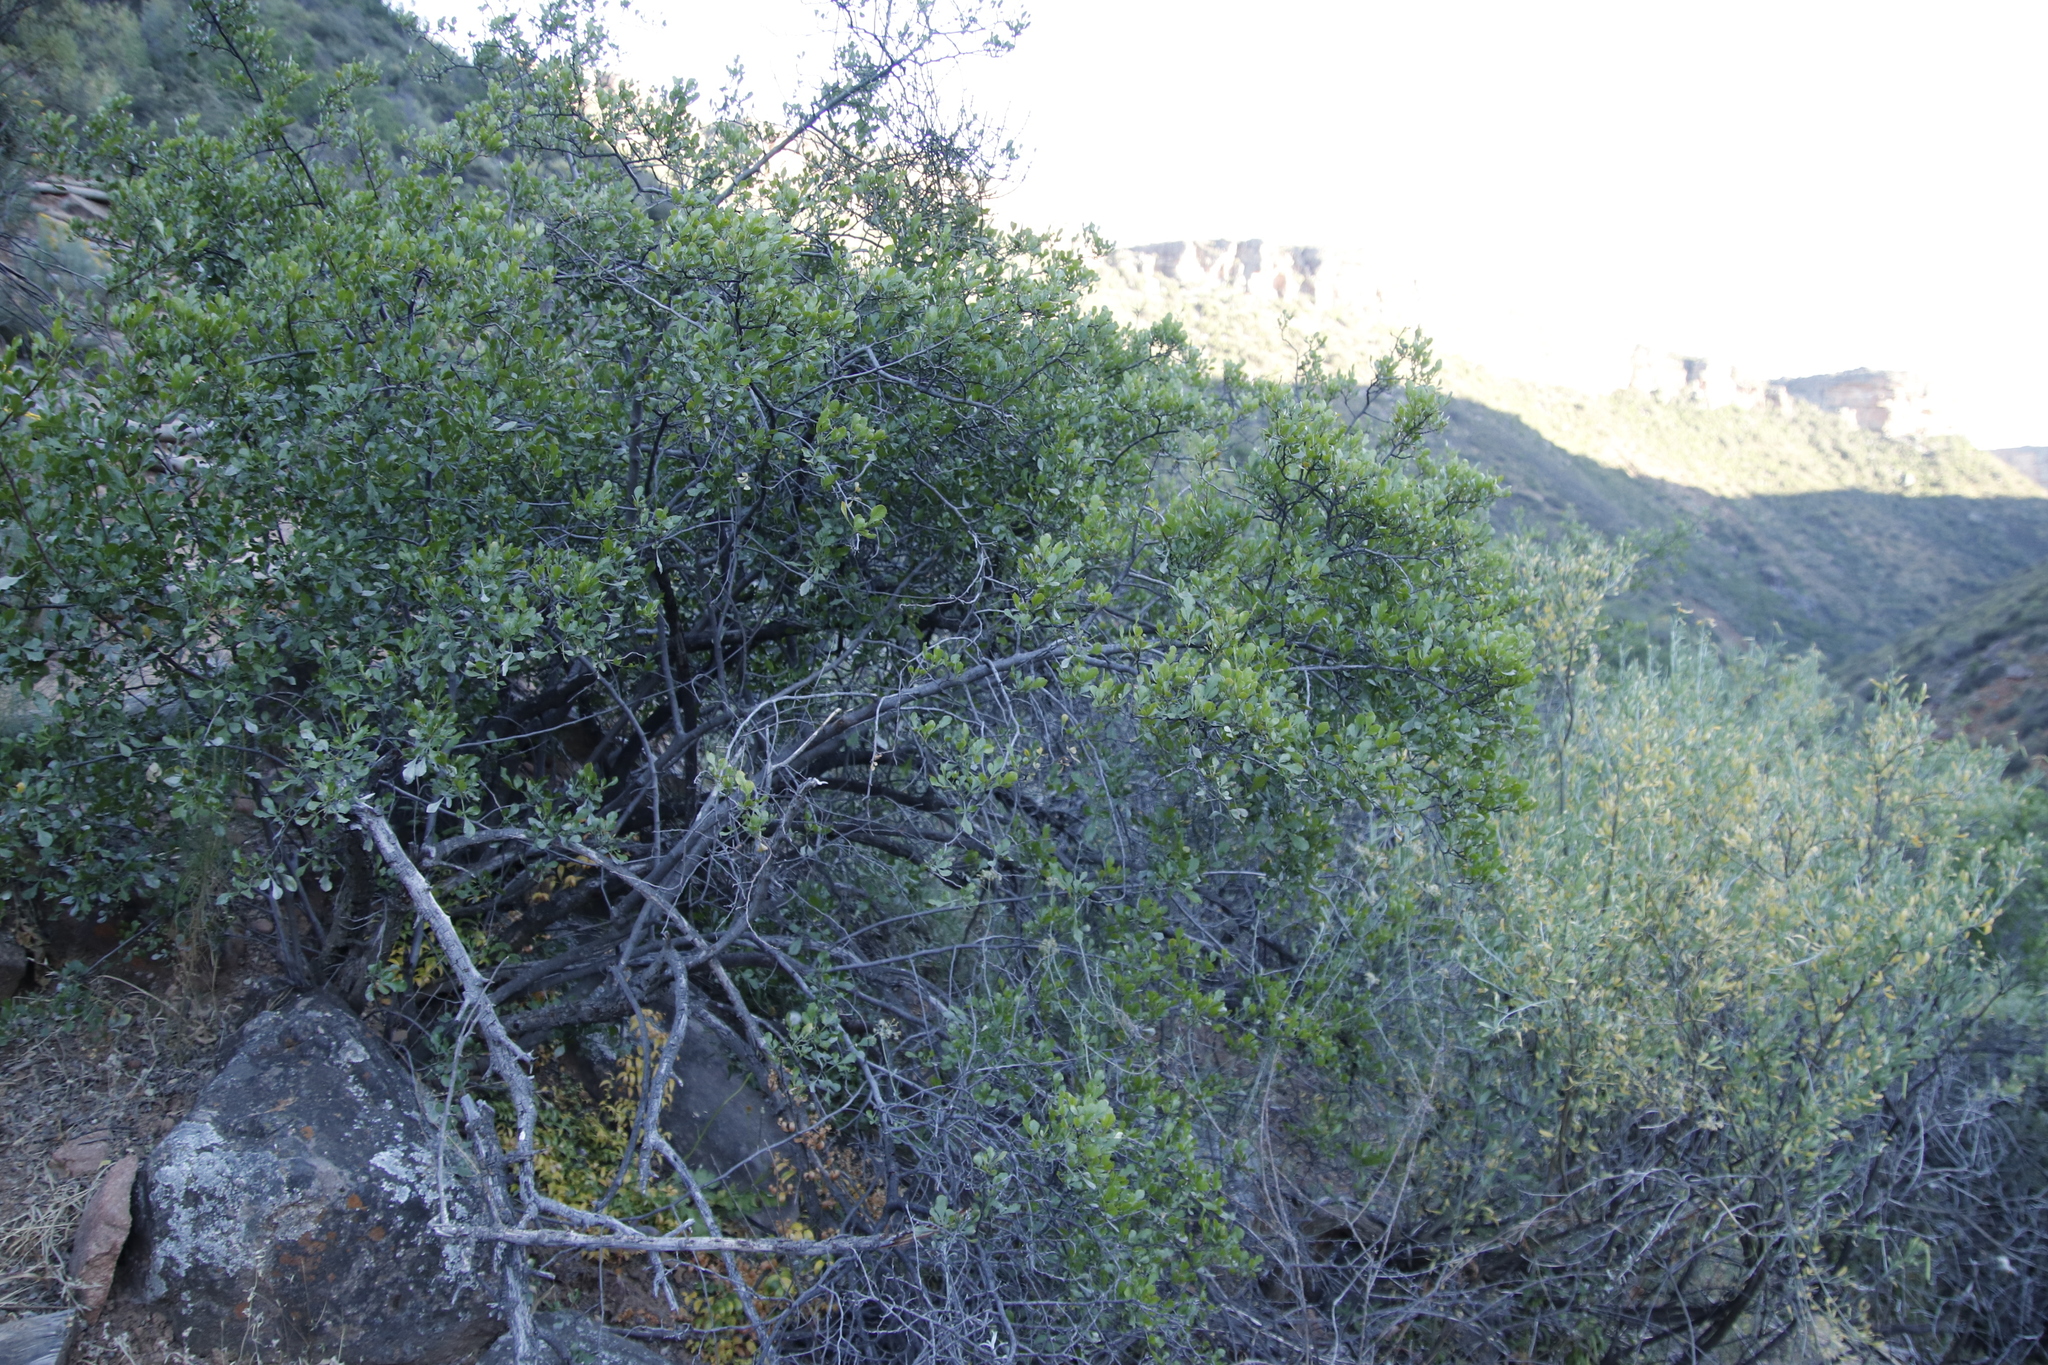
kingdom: Plantae
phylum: Tracheophyta
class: Magnoliopsida
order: Sapindales
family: Anacardiaceae
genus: Searsia
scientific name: Searsia undulata
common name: Namaqua kunibush
